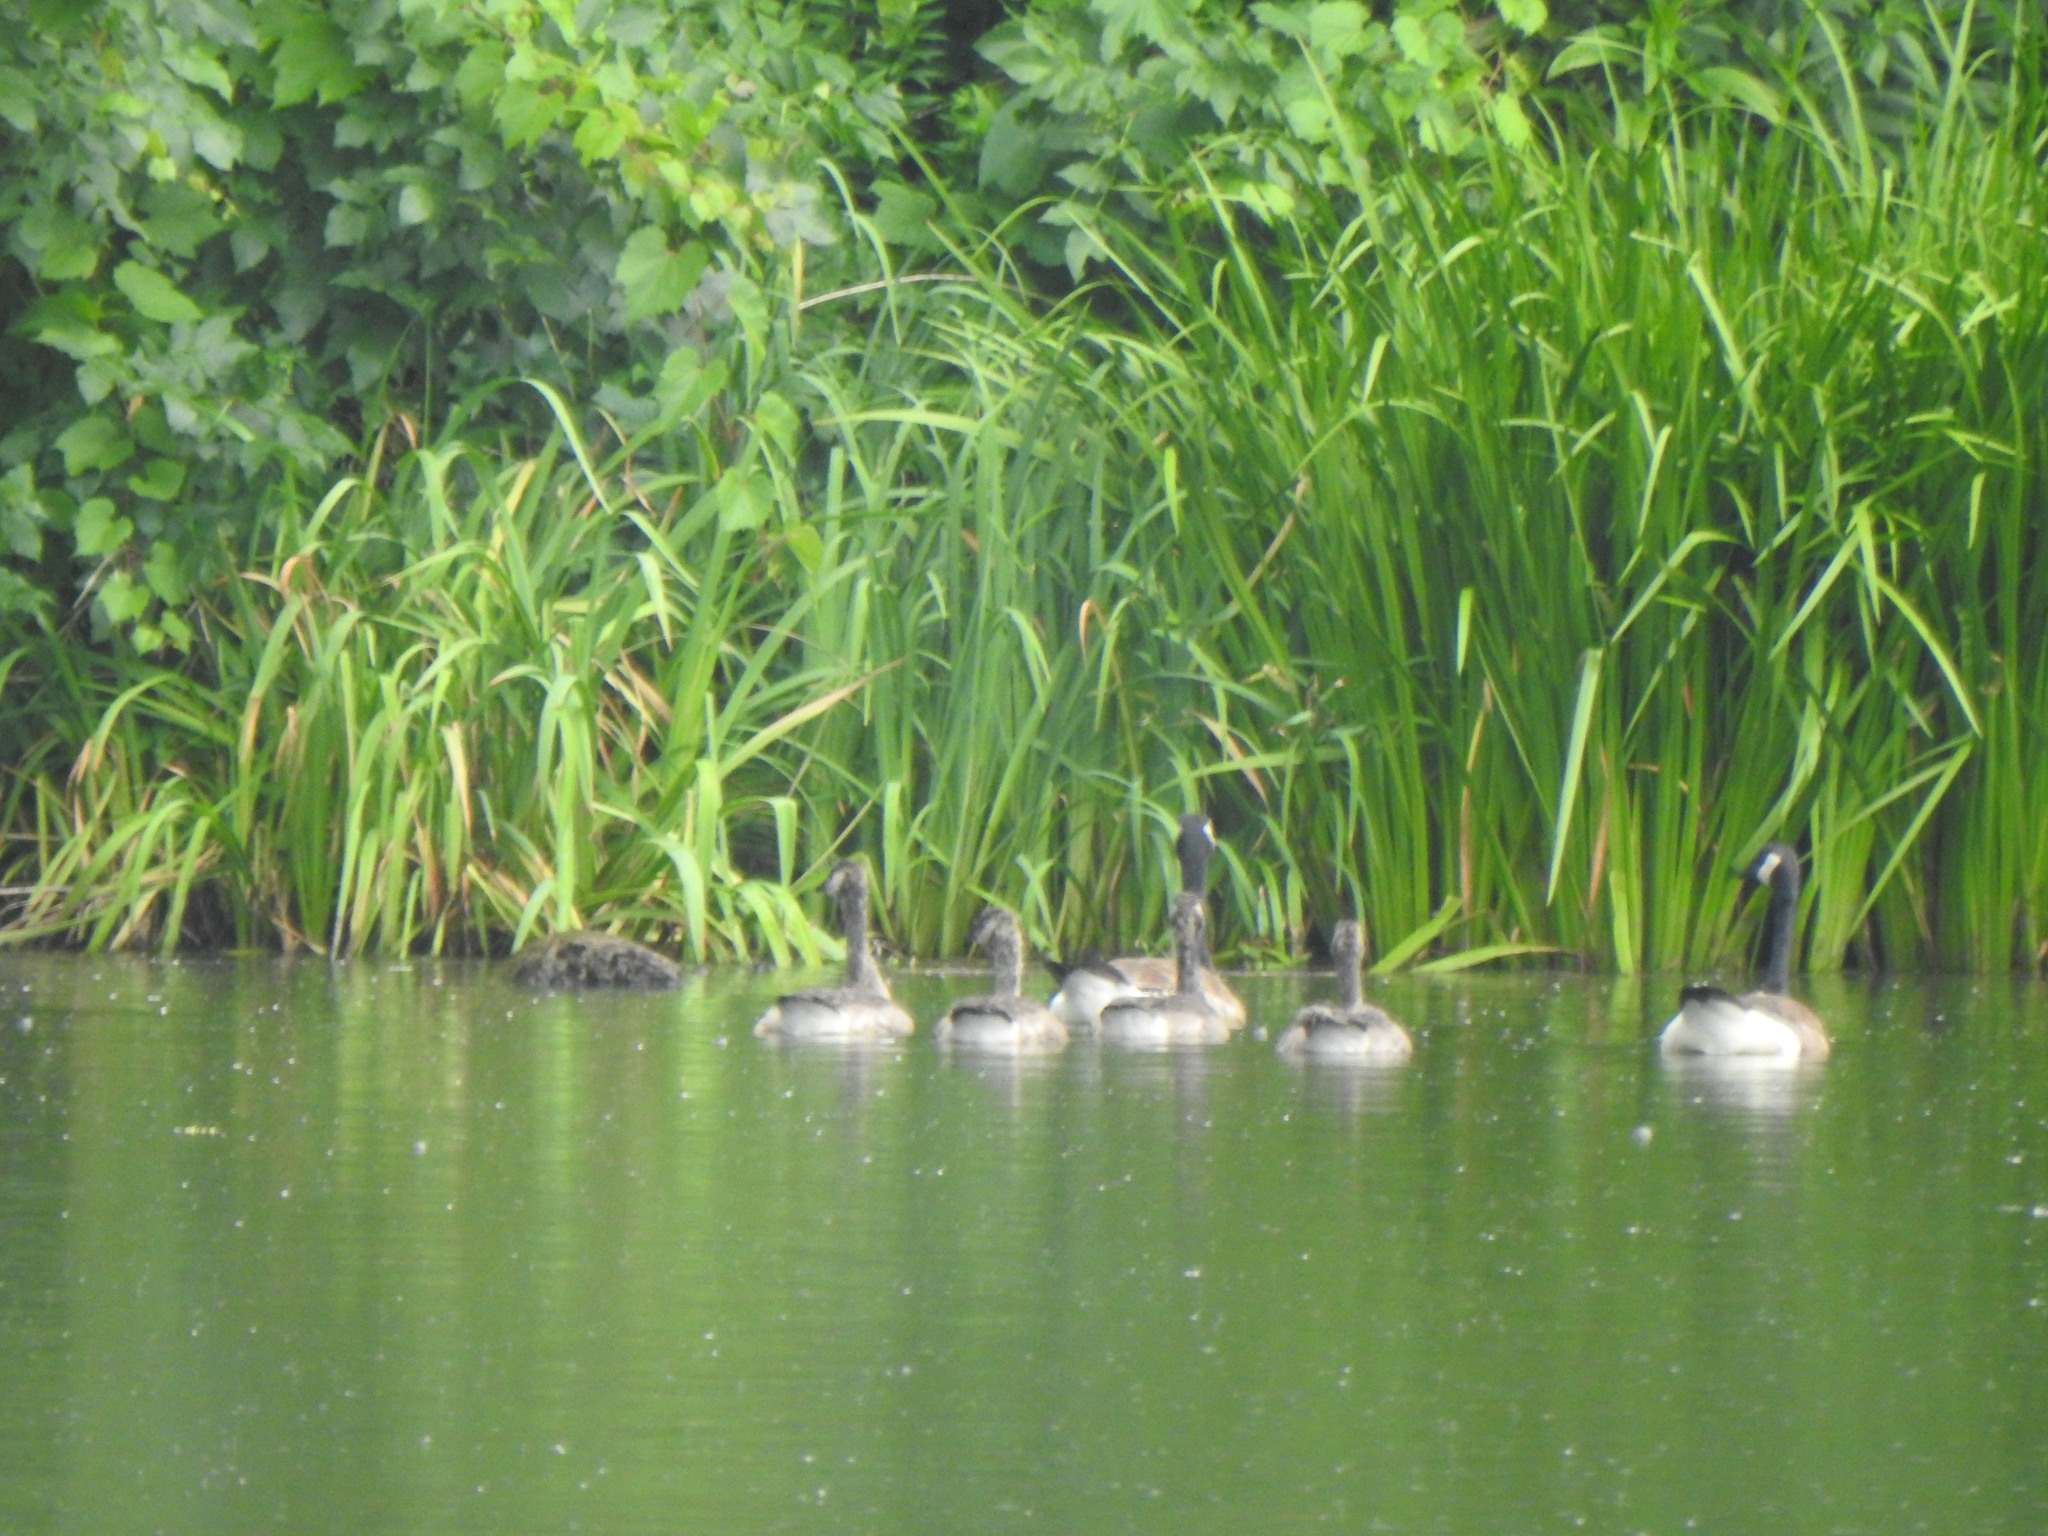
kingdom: Animalia
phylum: Chordata
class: Aves
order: Anseriformes
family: Anatidae
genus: Branta
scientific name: Branta canadensis
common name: Canada goose
